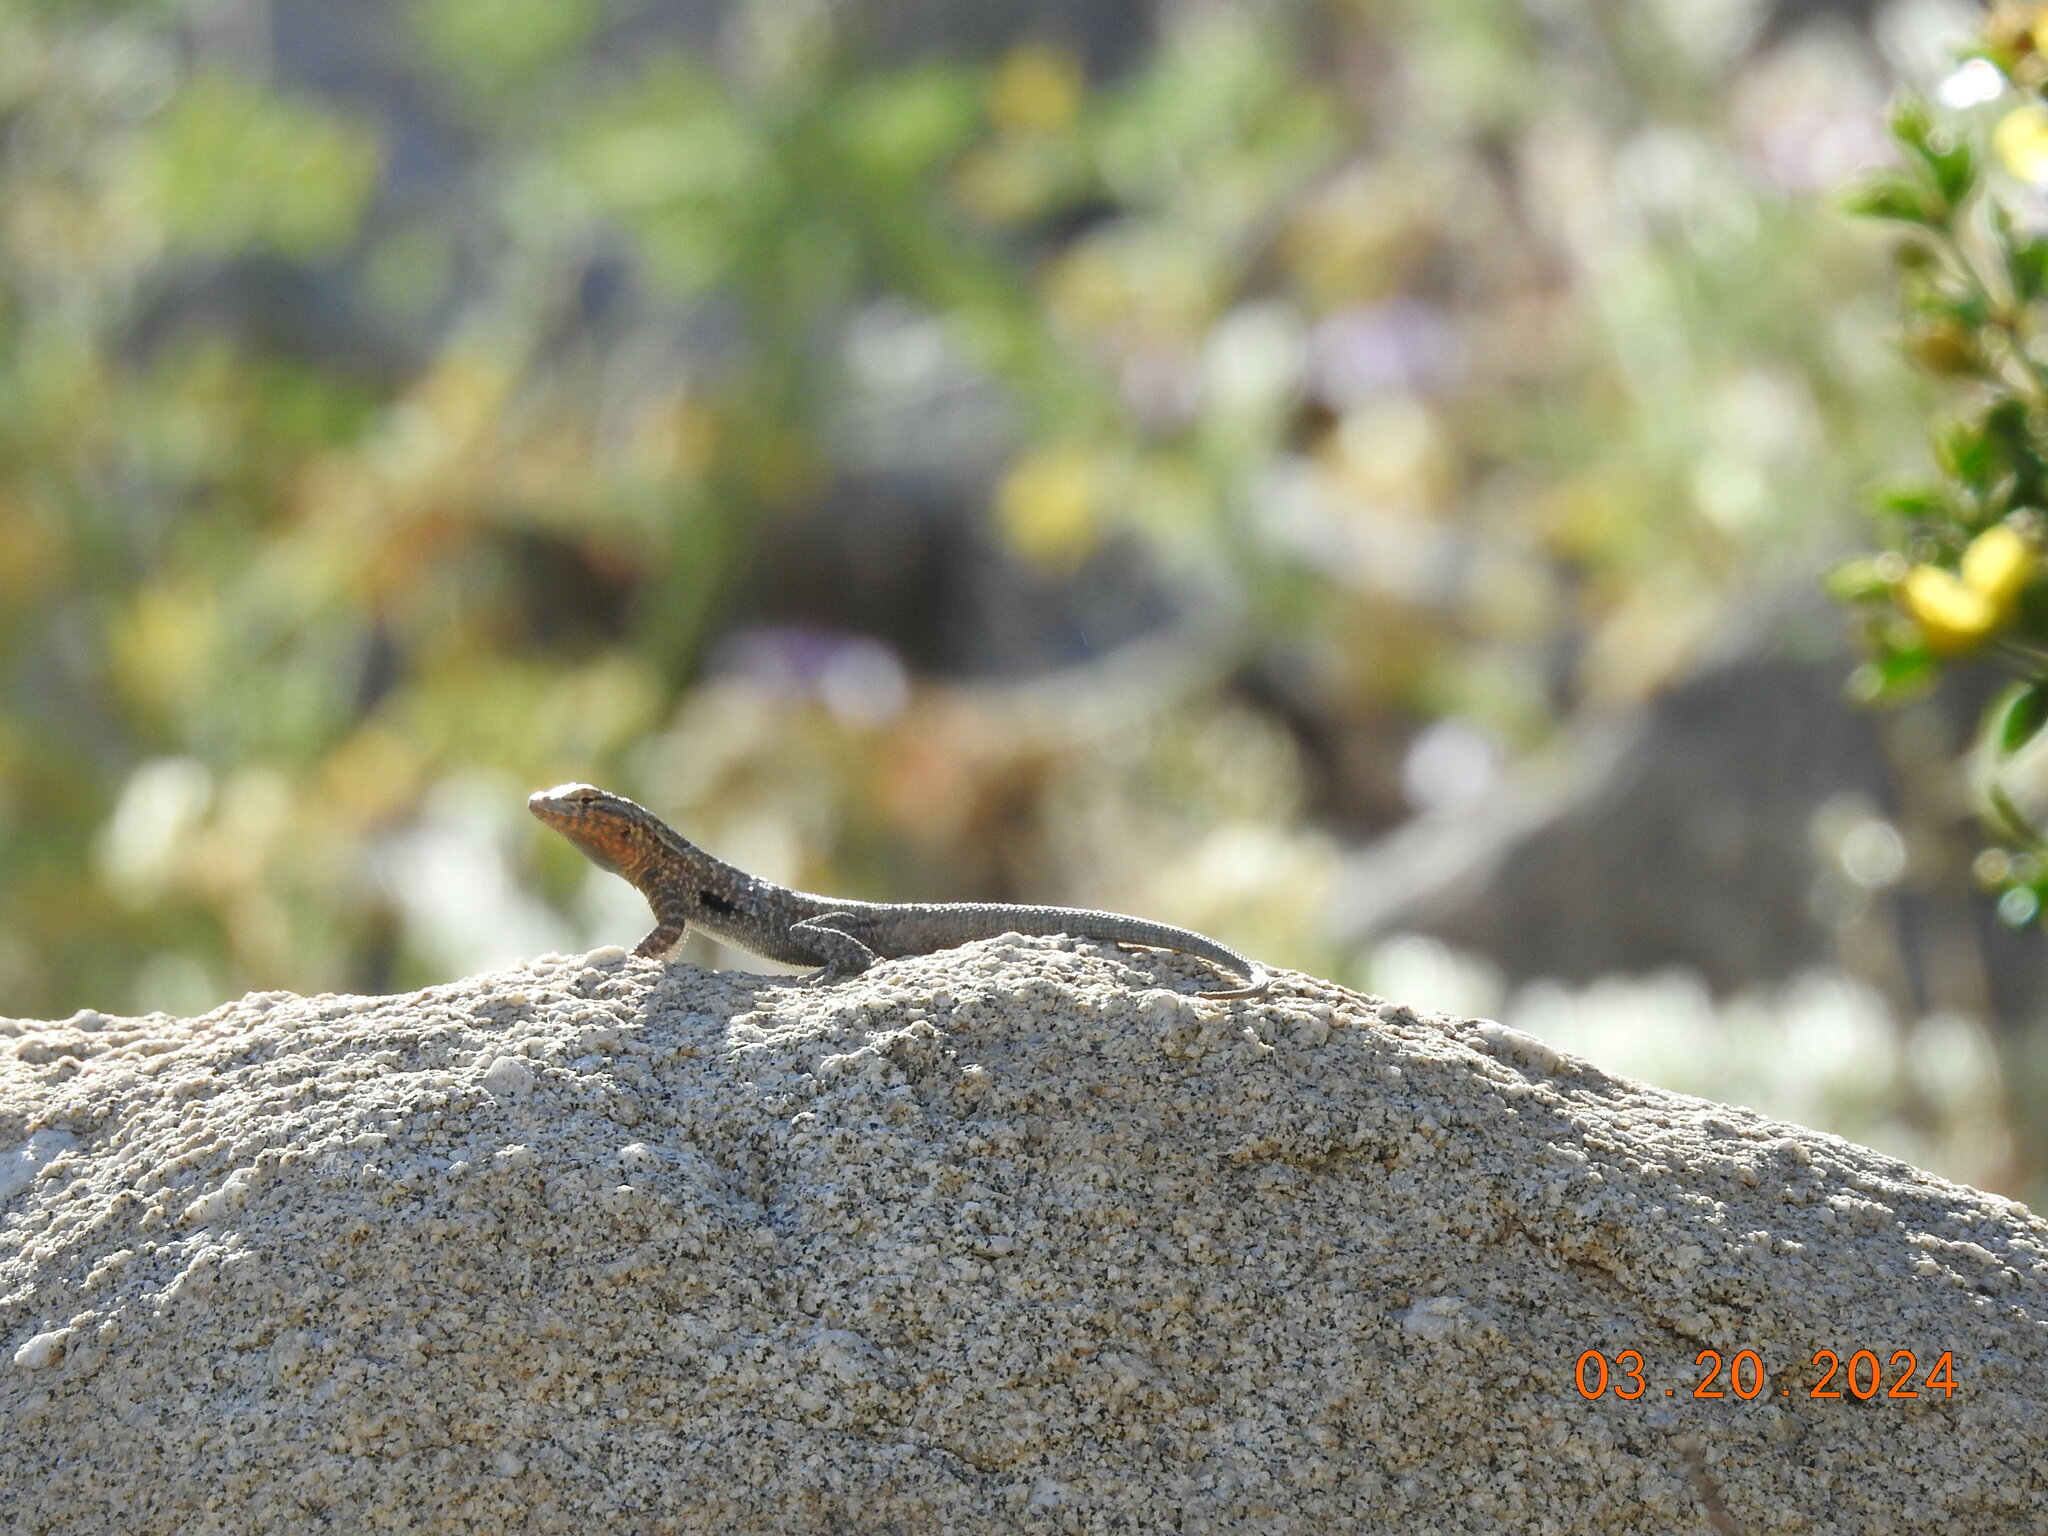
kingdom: Animalia
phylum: Chordata
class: Squamata
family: Phrynosomatidae
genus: Uta
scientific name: Uta stansburiana
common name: Side-blotched lizard
